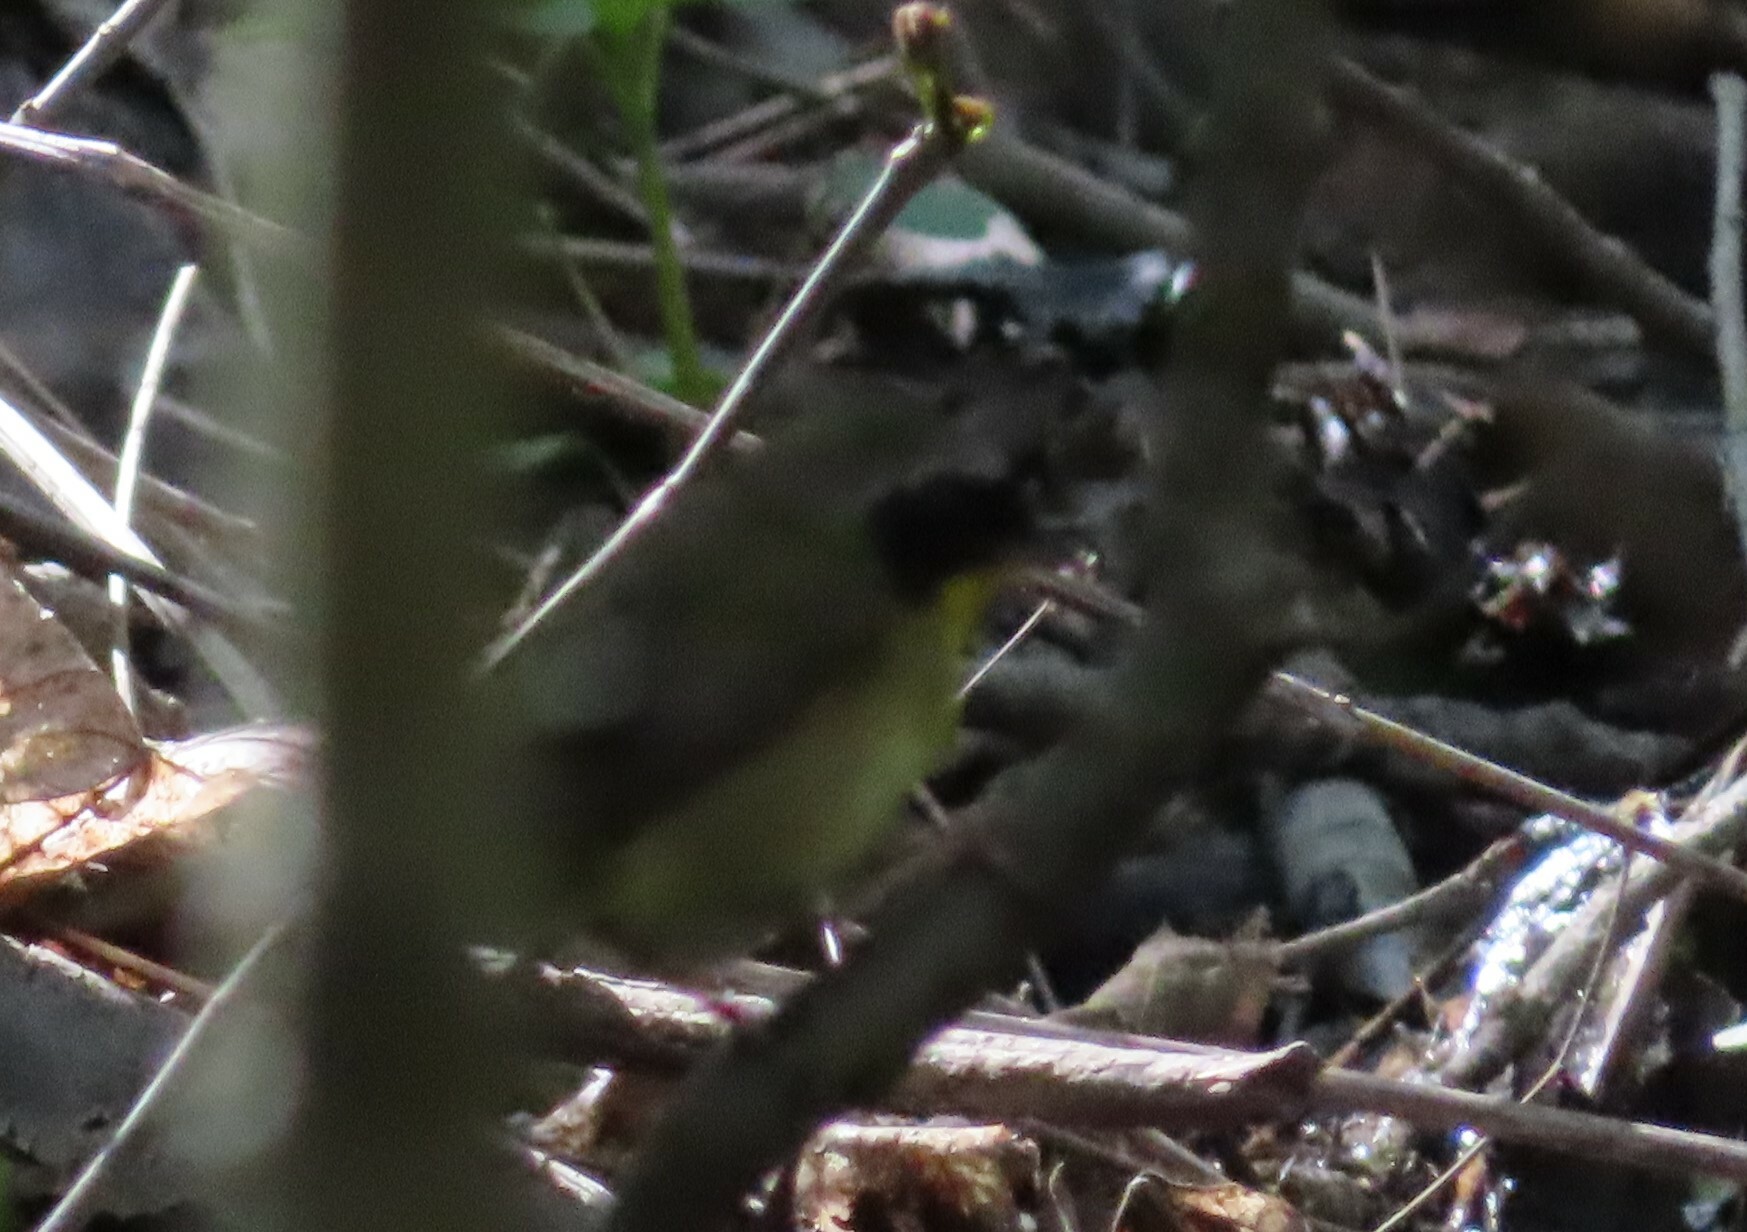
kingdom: Animalia
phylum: Chordata
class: Aves
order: Passeriformes
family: Parulidae
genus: Geothlypis
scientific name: Geothlypis trichas
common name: Common yellowthroat
